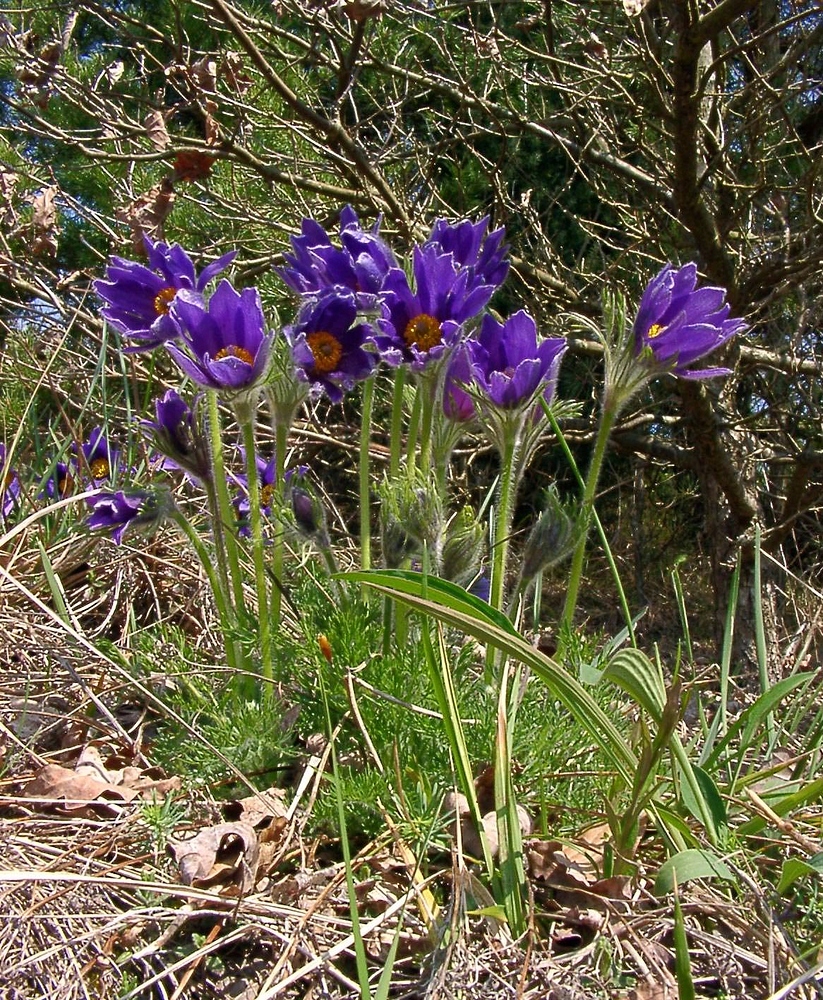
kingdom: Plantae
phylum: Tracheophyta
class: Magnoliopsida
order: Ranunculales
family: Ranunculaceae
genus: Pulsatilla
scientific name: Pulsatilla vulgaris
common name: Pasqueflower
